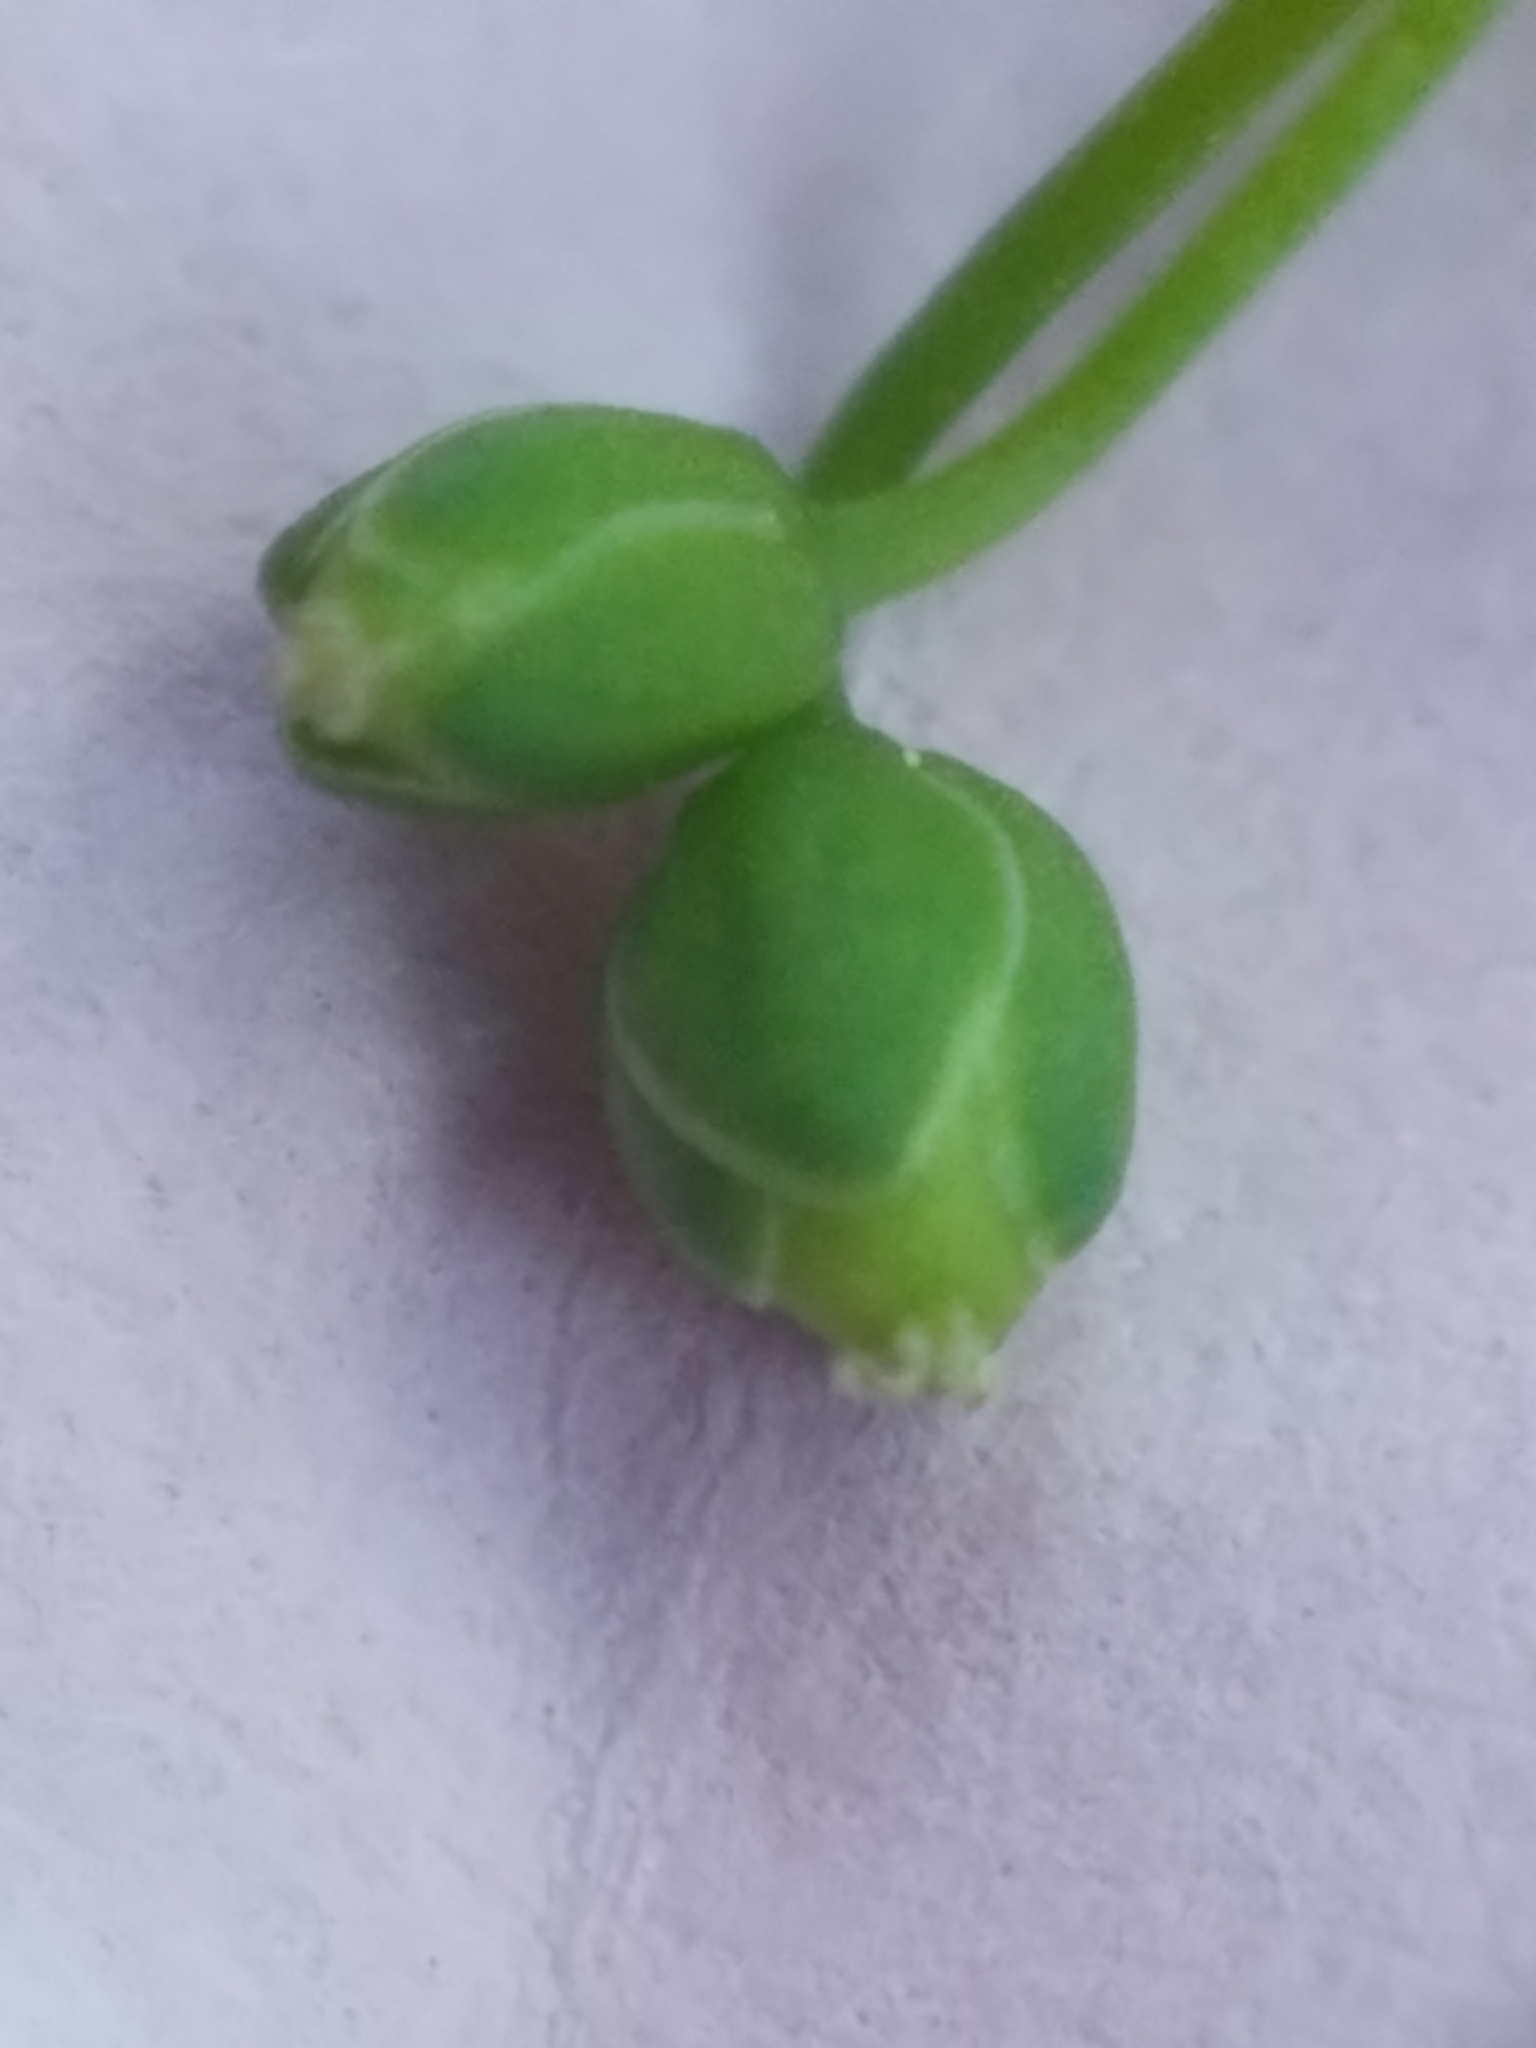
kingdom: Plantae
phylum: Tracheophyta
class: Magnoliopsida
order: Caryophyllales
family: Caryophyllaceae
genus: Sagina
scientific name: Sagina procumbens
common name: Procumbent pearlwort
